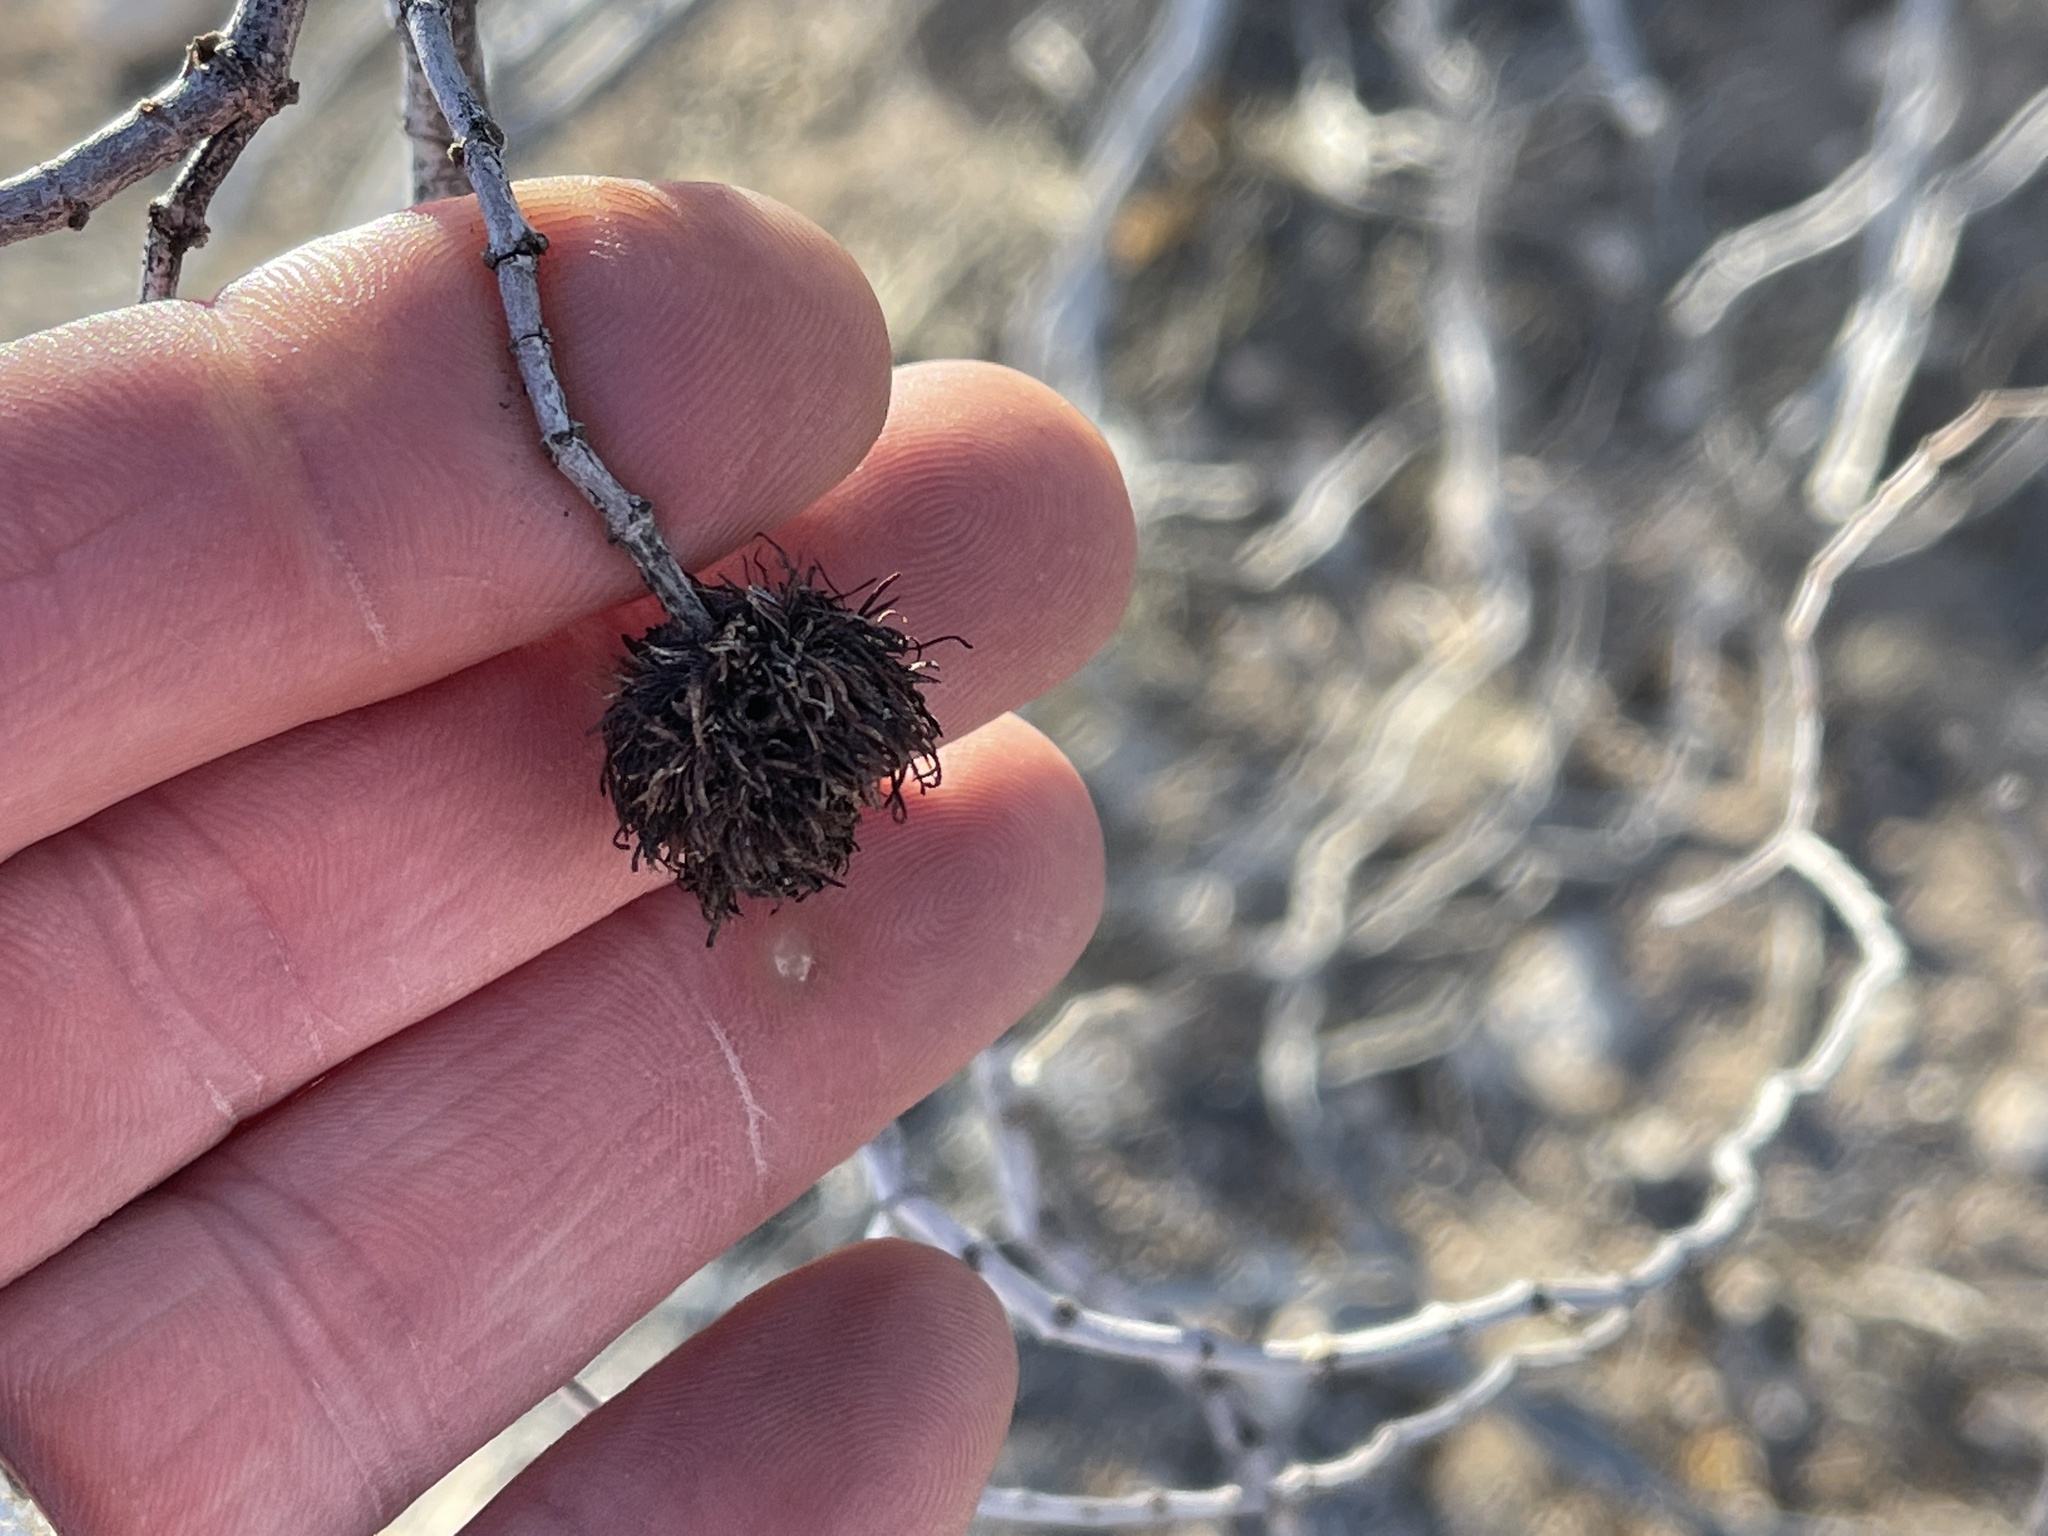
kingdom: Animalia
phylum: Arthropoda
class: Insecta
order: Diptera
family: Cecidomyiidae
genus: Asphondylia
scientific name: Asphondylia auripila
